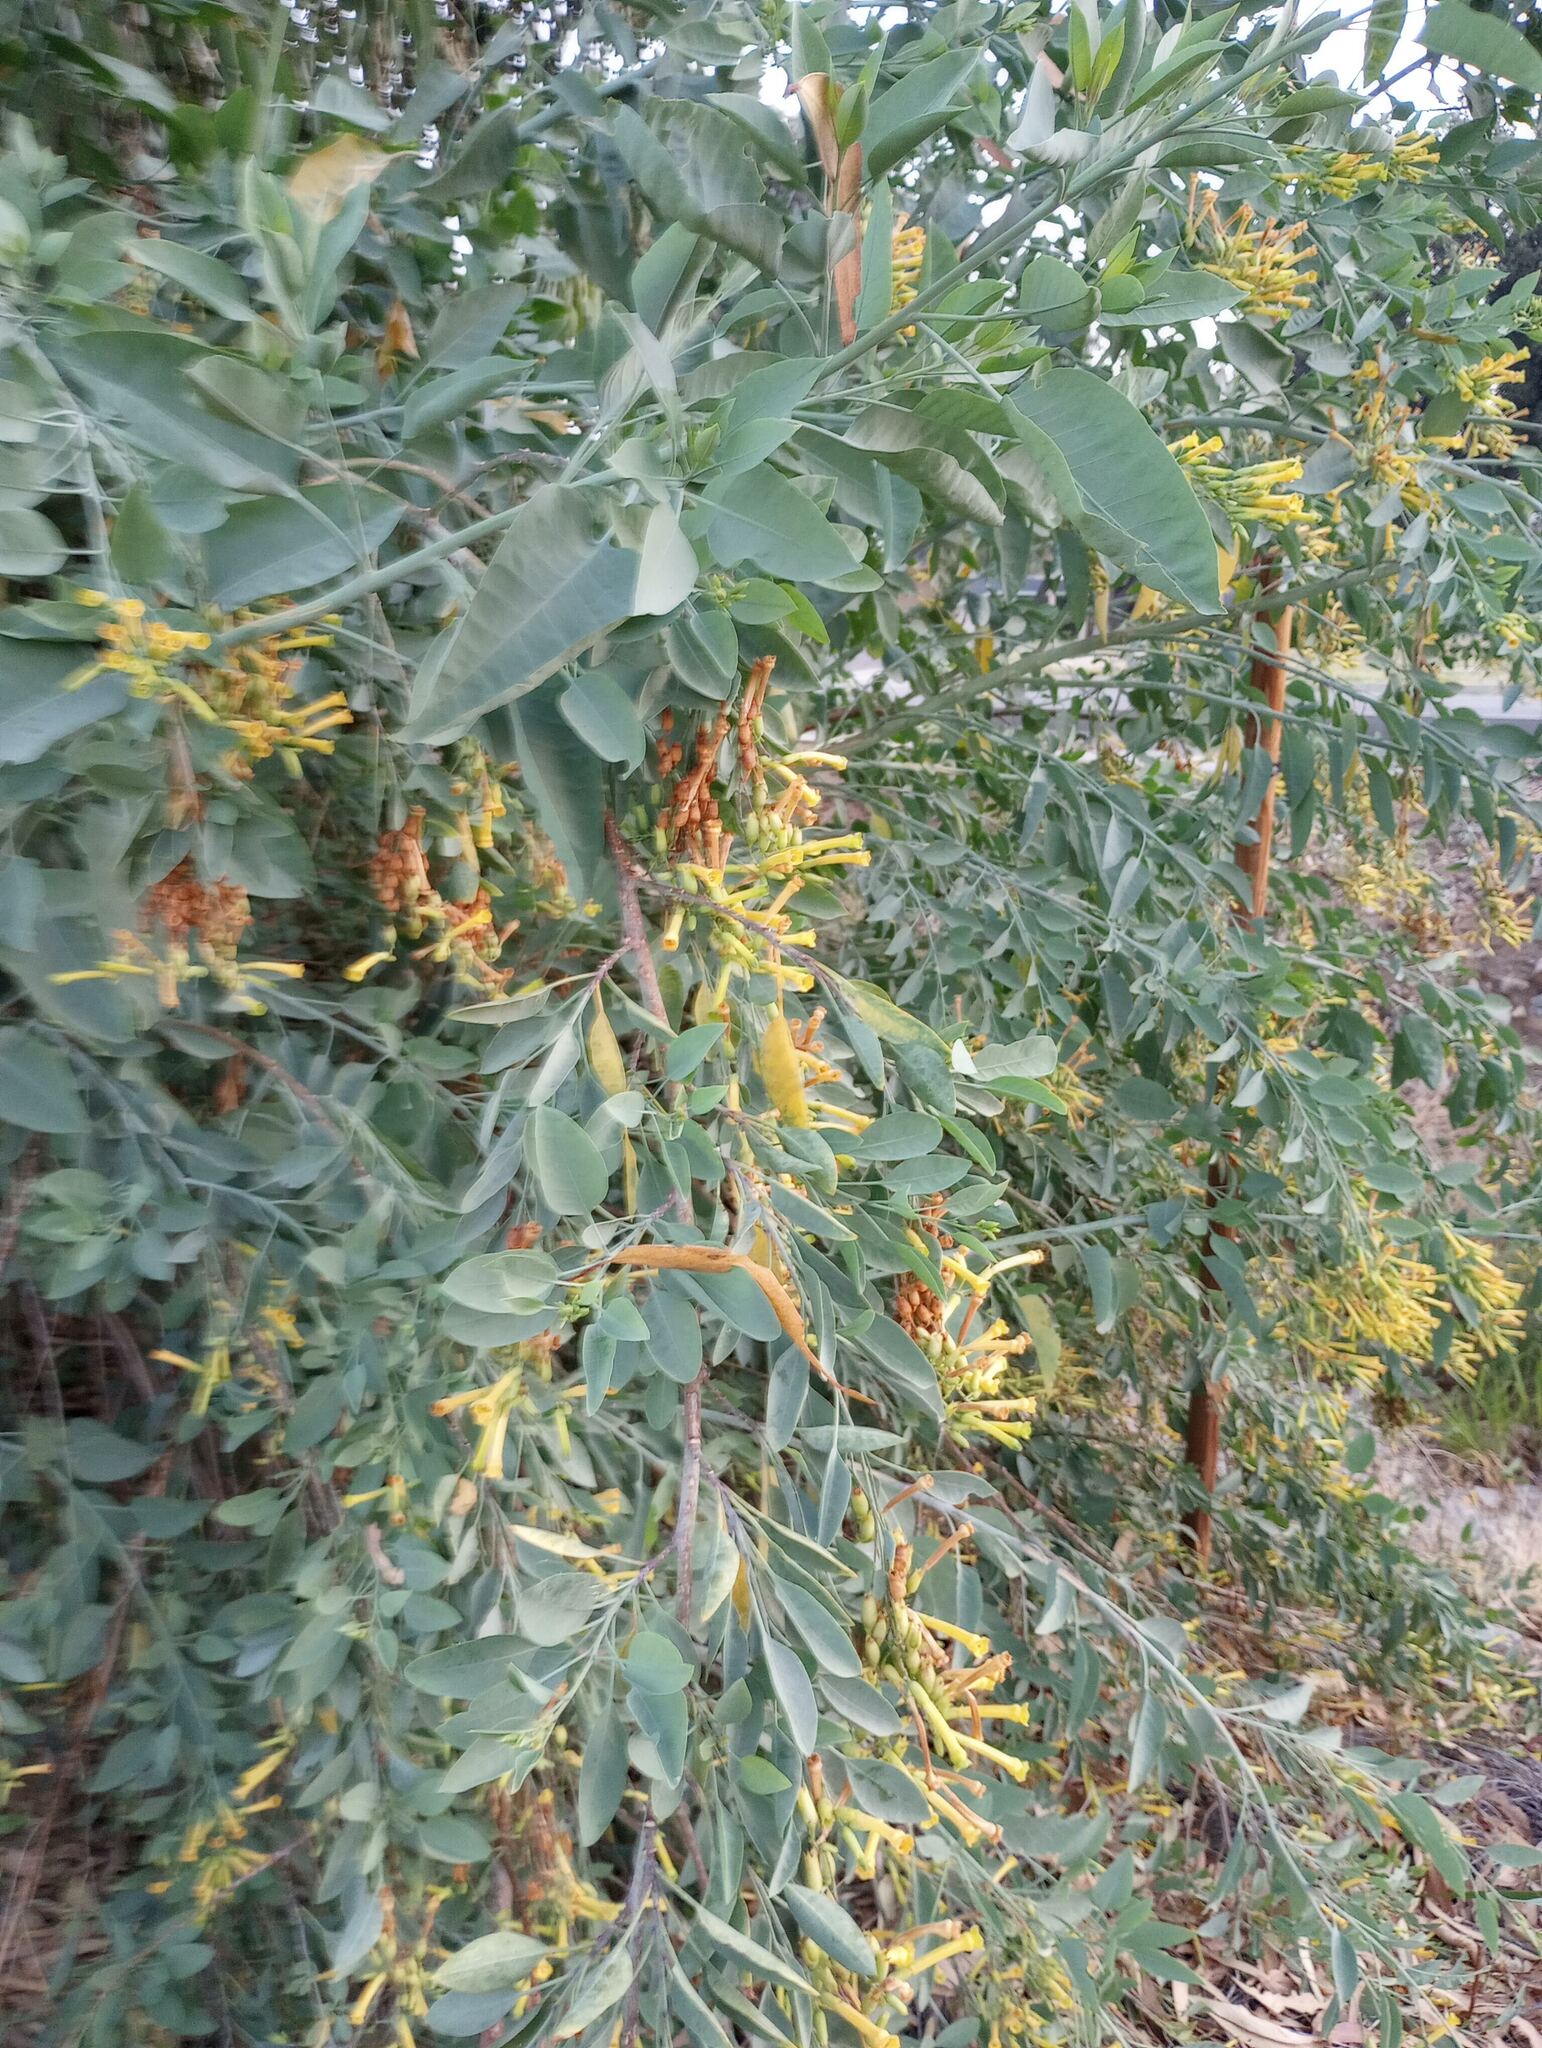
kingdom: Plantae
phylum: Tracheophyta
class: Magnoliopsida
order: Solanales
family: Solanaceae
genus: Nicotiana
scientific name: Nicotiana glauca
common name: Tree tobacco
